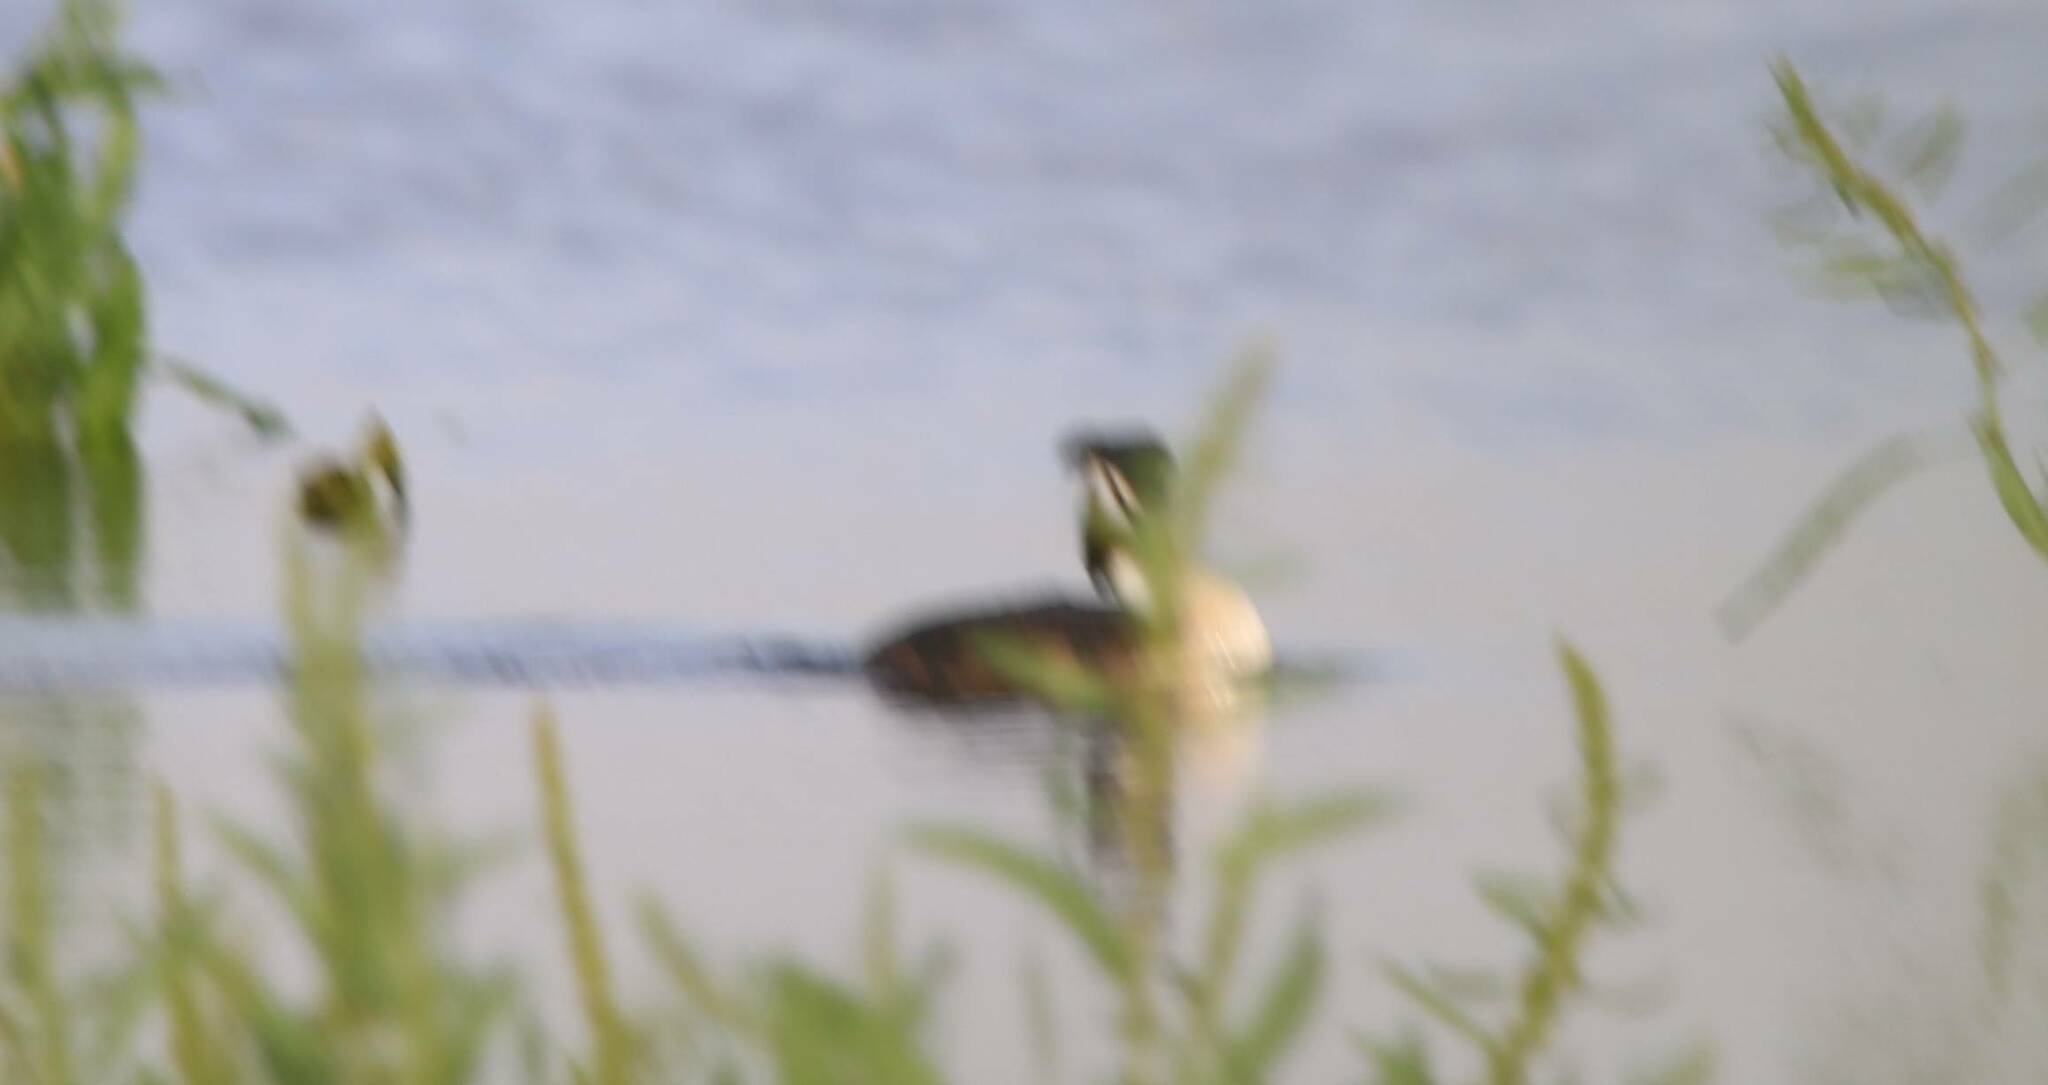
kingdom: Animalia
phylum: Chordata
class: Aves
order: Podicipediformes
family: Podicipedidae
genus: Podiceps
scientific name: Podiceps cristatus
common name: Great crested grebe
